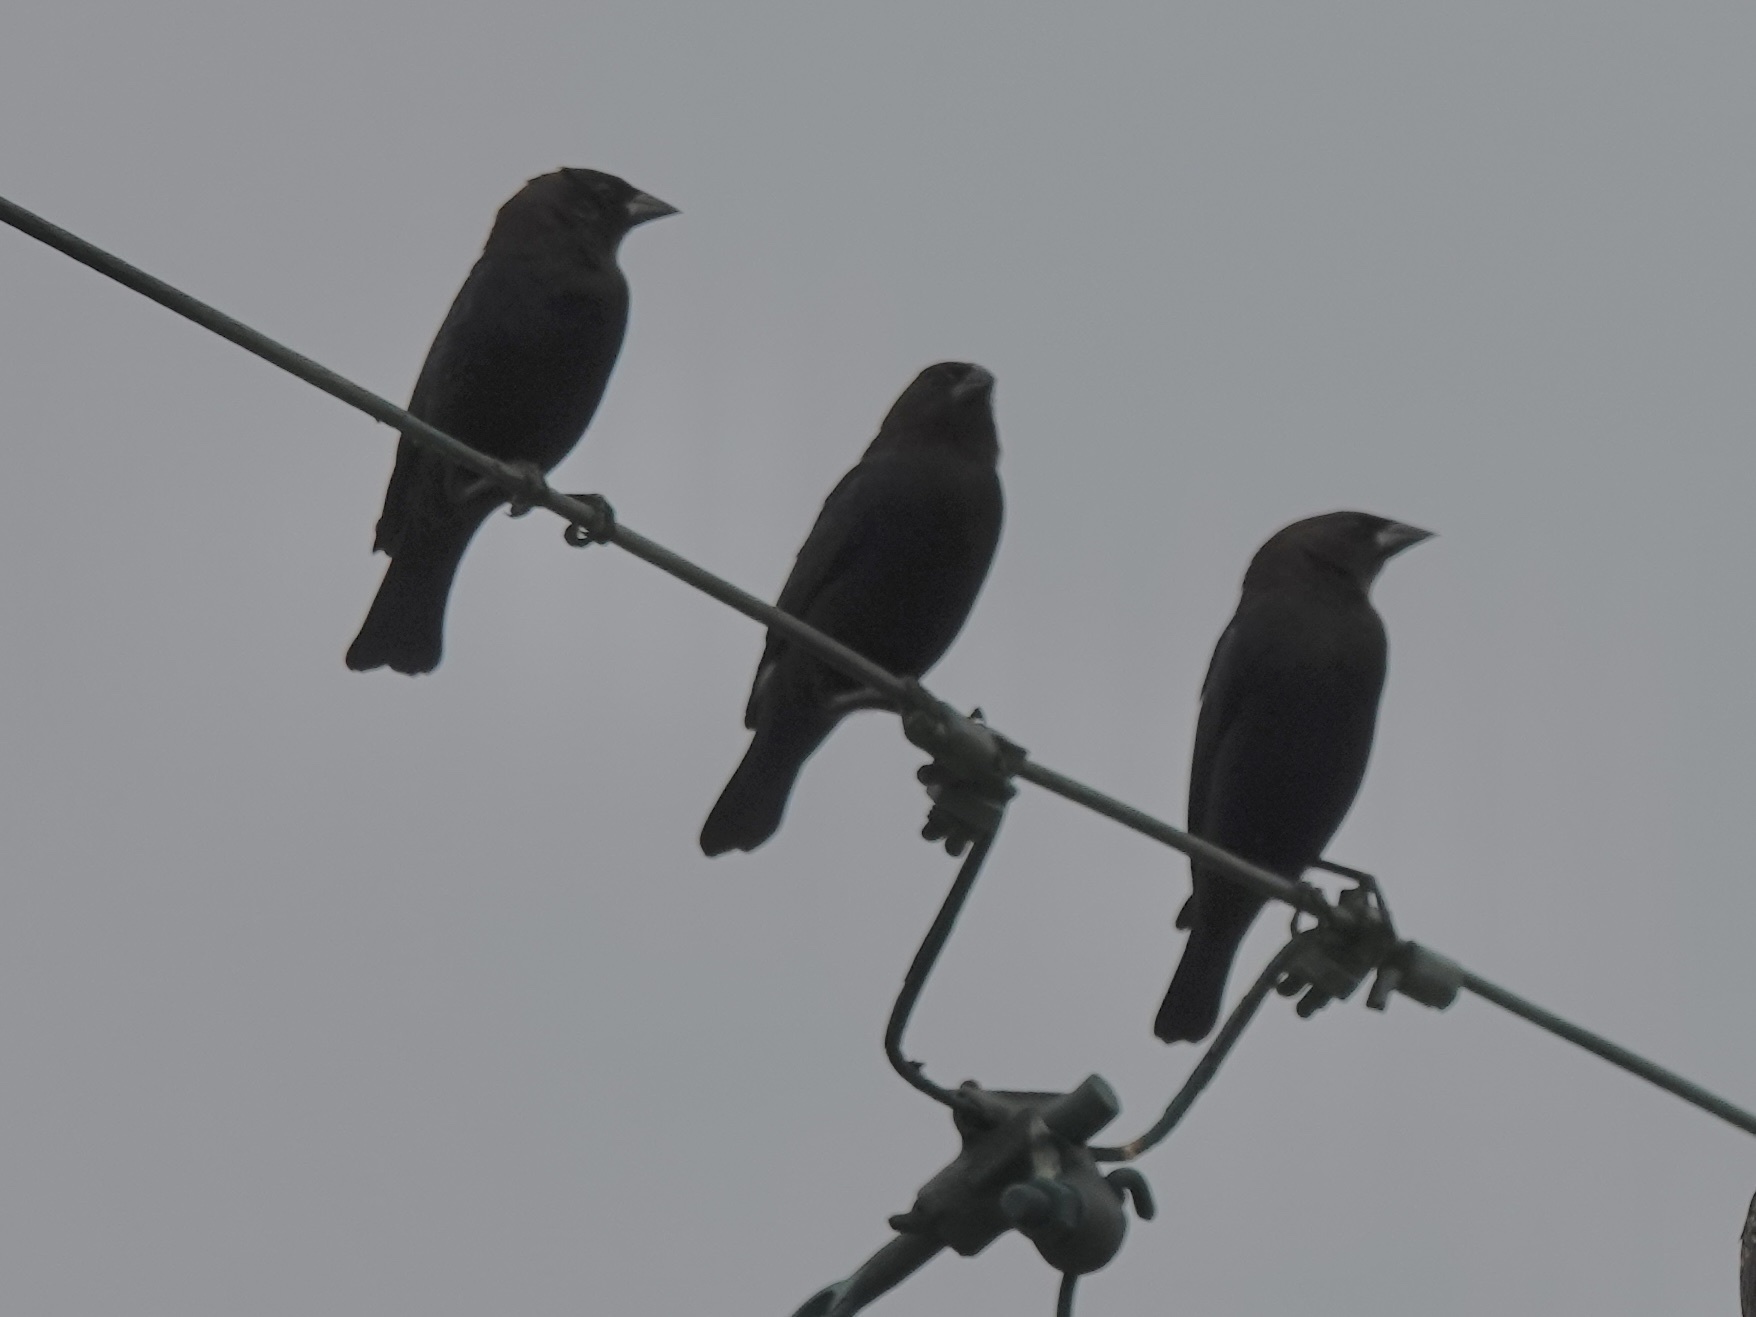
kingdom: Animalia
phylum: Chordata
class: Aves
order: Passeriformes
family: Icteridae
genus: Molothrus
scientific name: Molothrus ater
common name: Brown-headed cowbird
